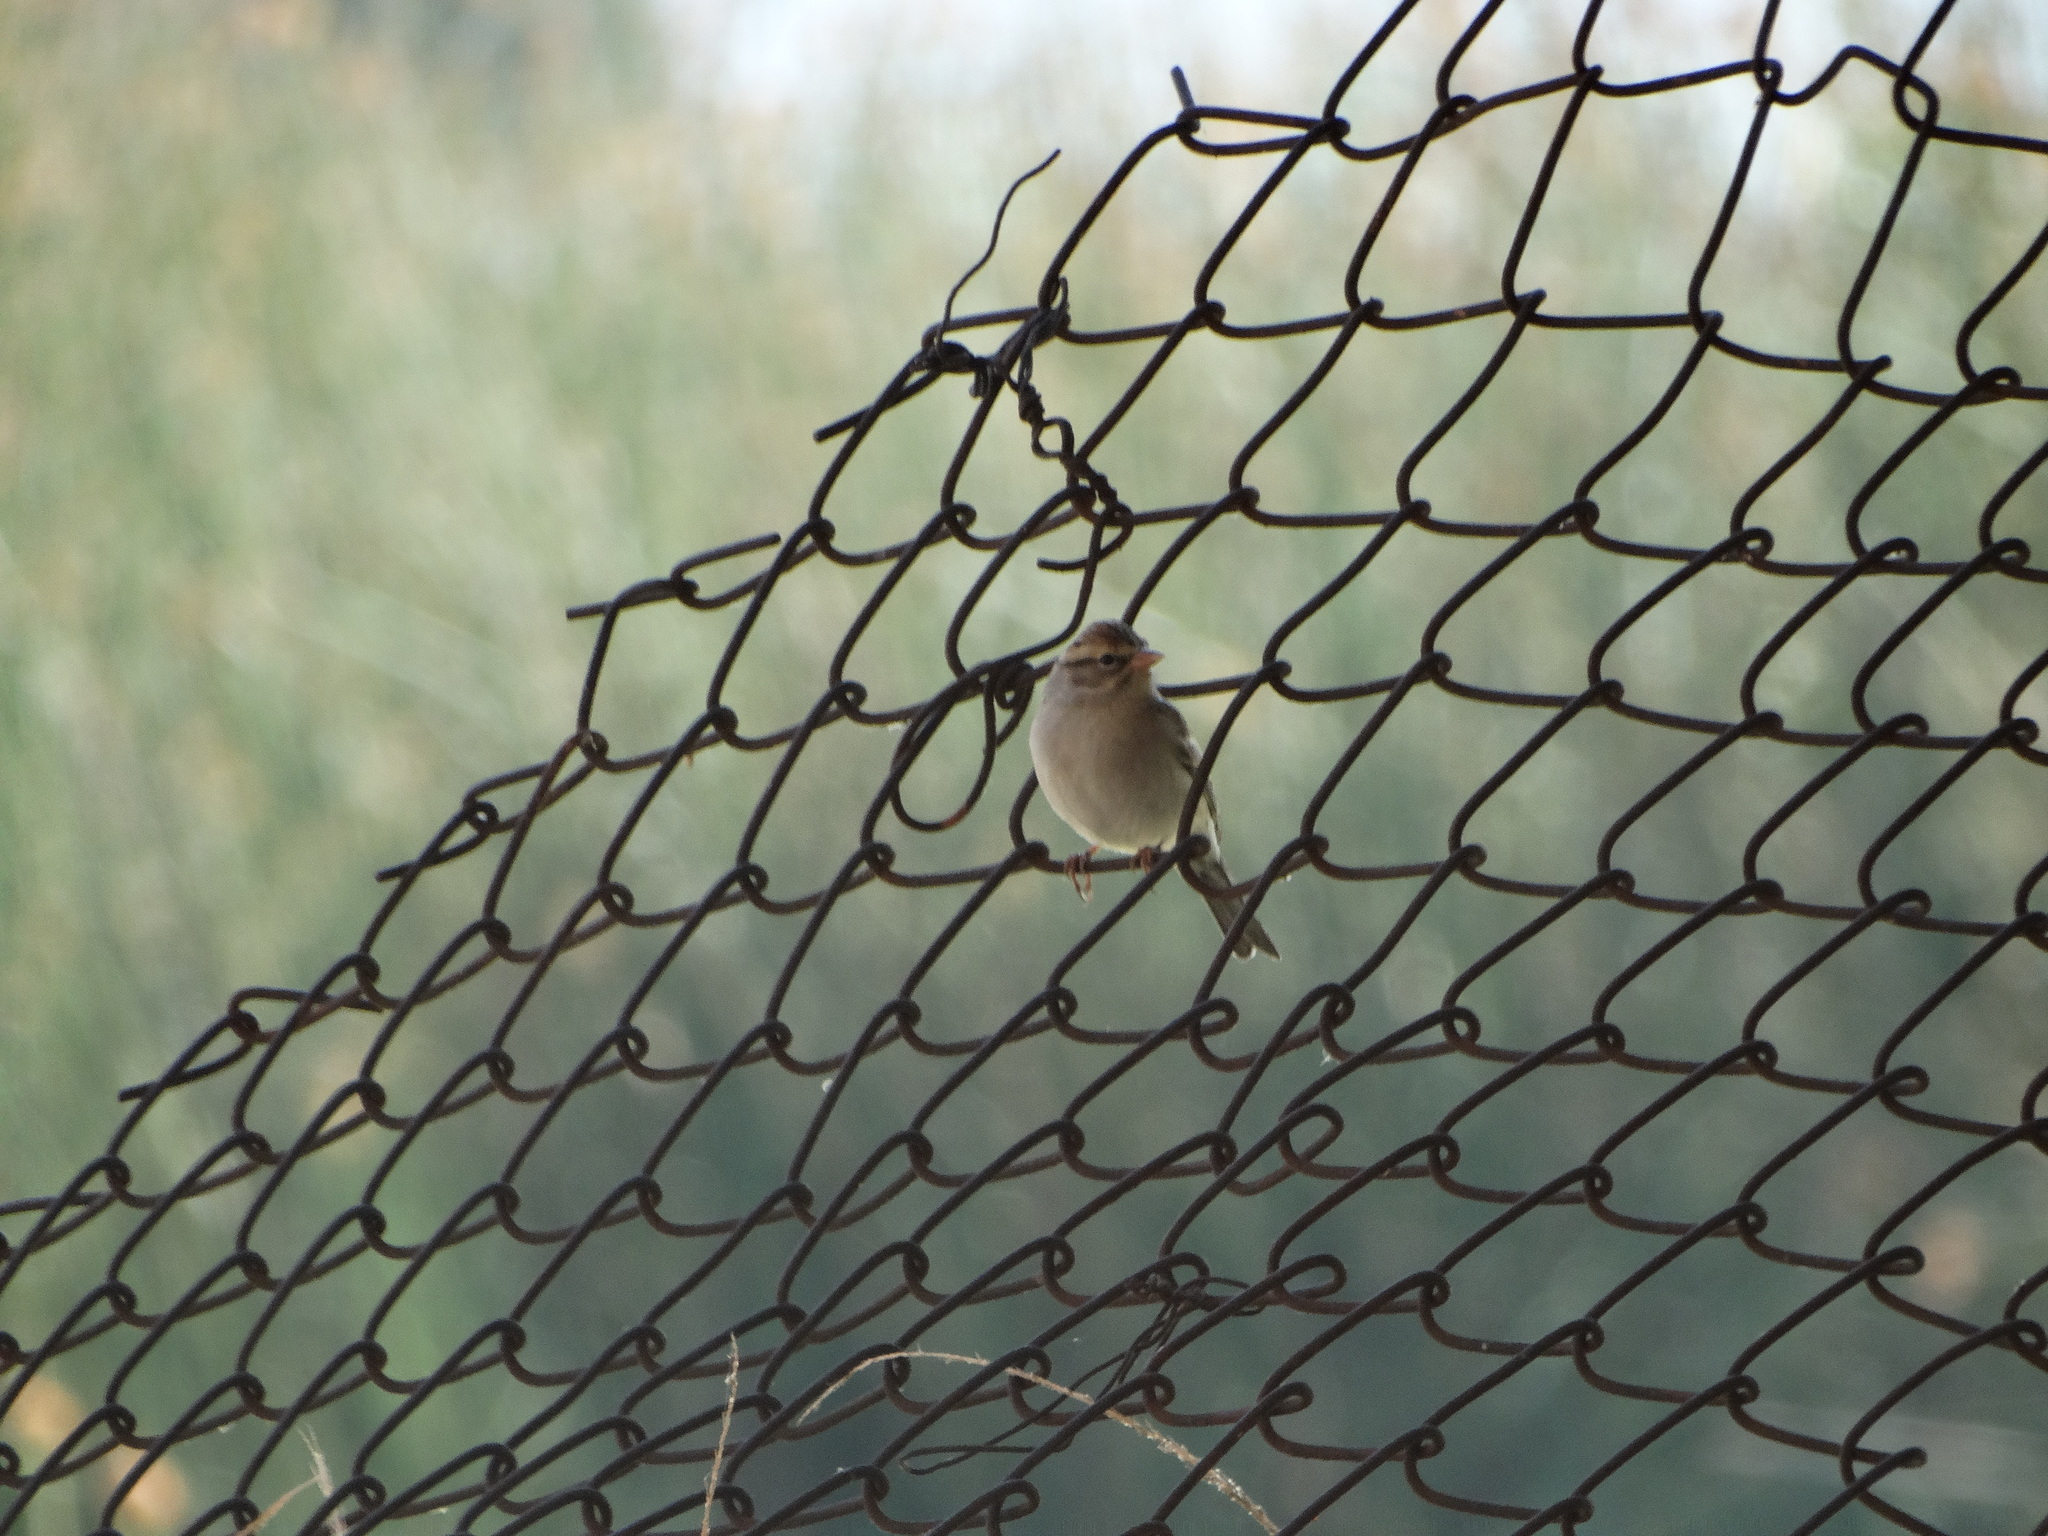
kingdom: Animalia
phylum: Chordata
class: Aves
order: Passeriformes
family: Passerellidae
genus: Spizella
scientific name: Spizella passerina
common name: Chipping sparrow
